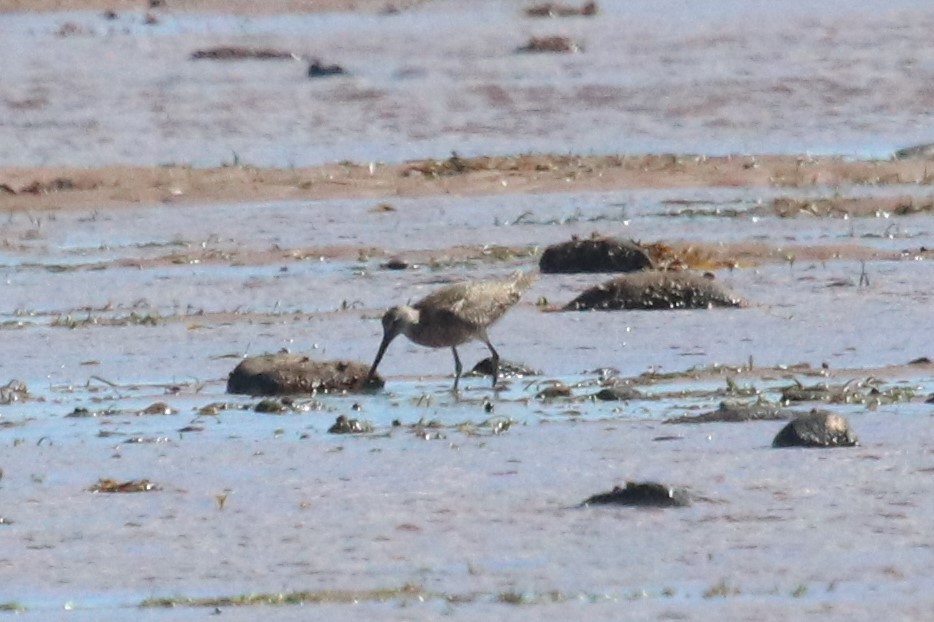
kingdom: Animalia
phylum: Chordata
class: Aves
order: Charadriiformes
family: Scolopacidae
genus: Tringa
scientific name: Tringa semipalmata
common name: Willet
